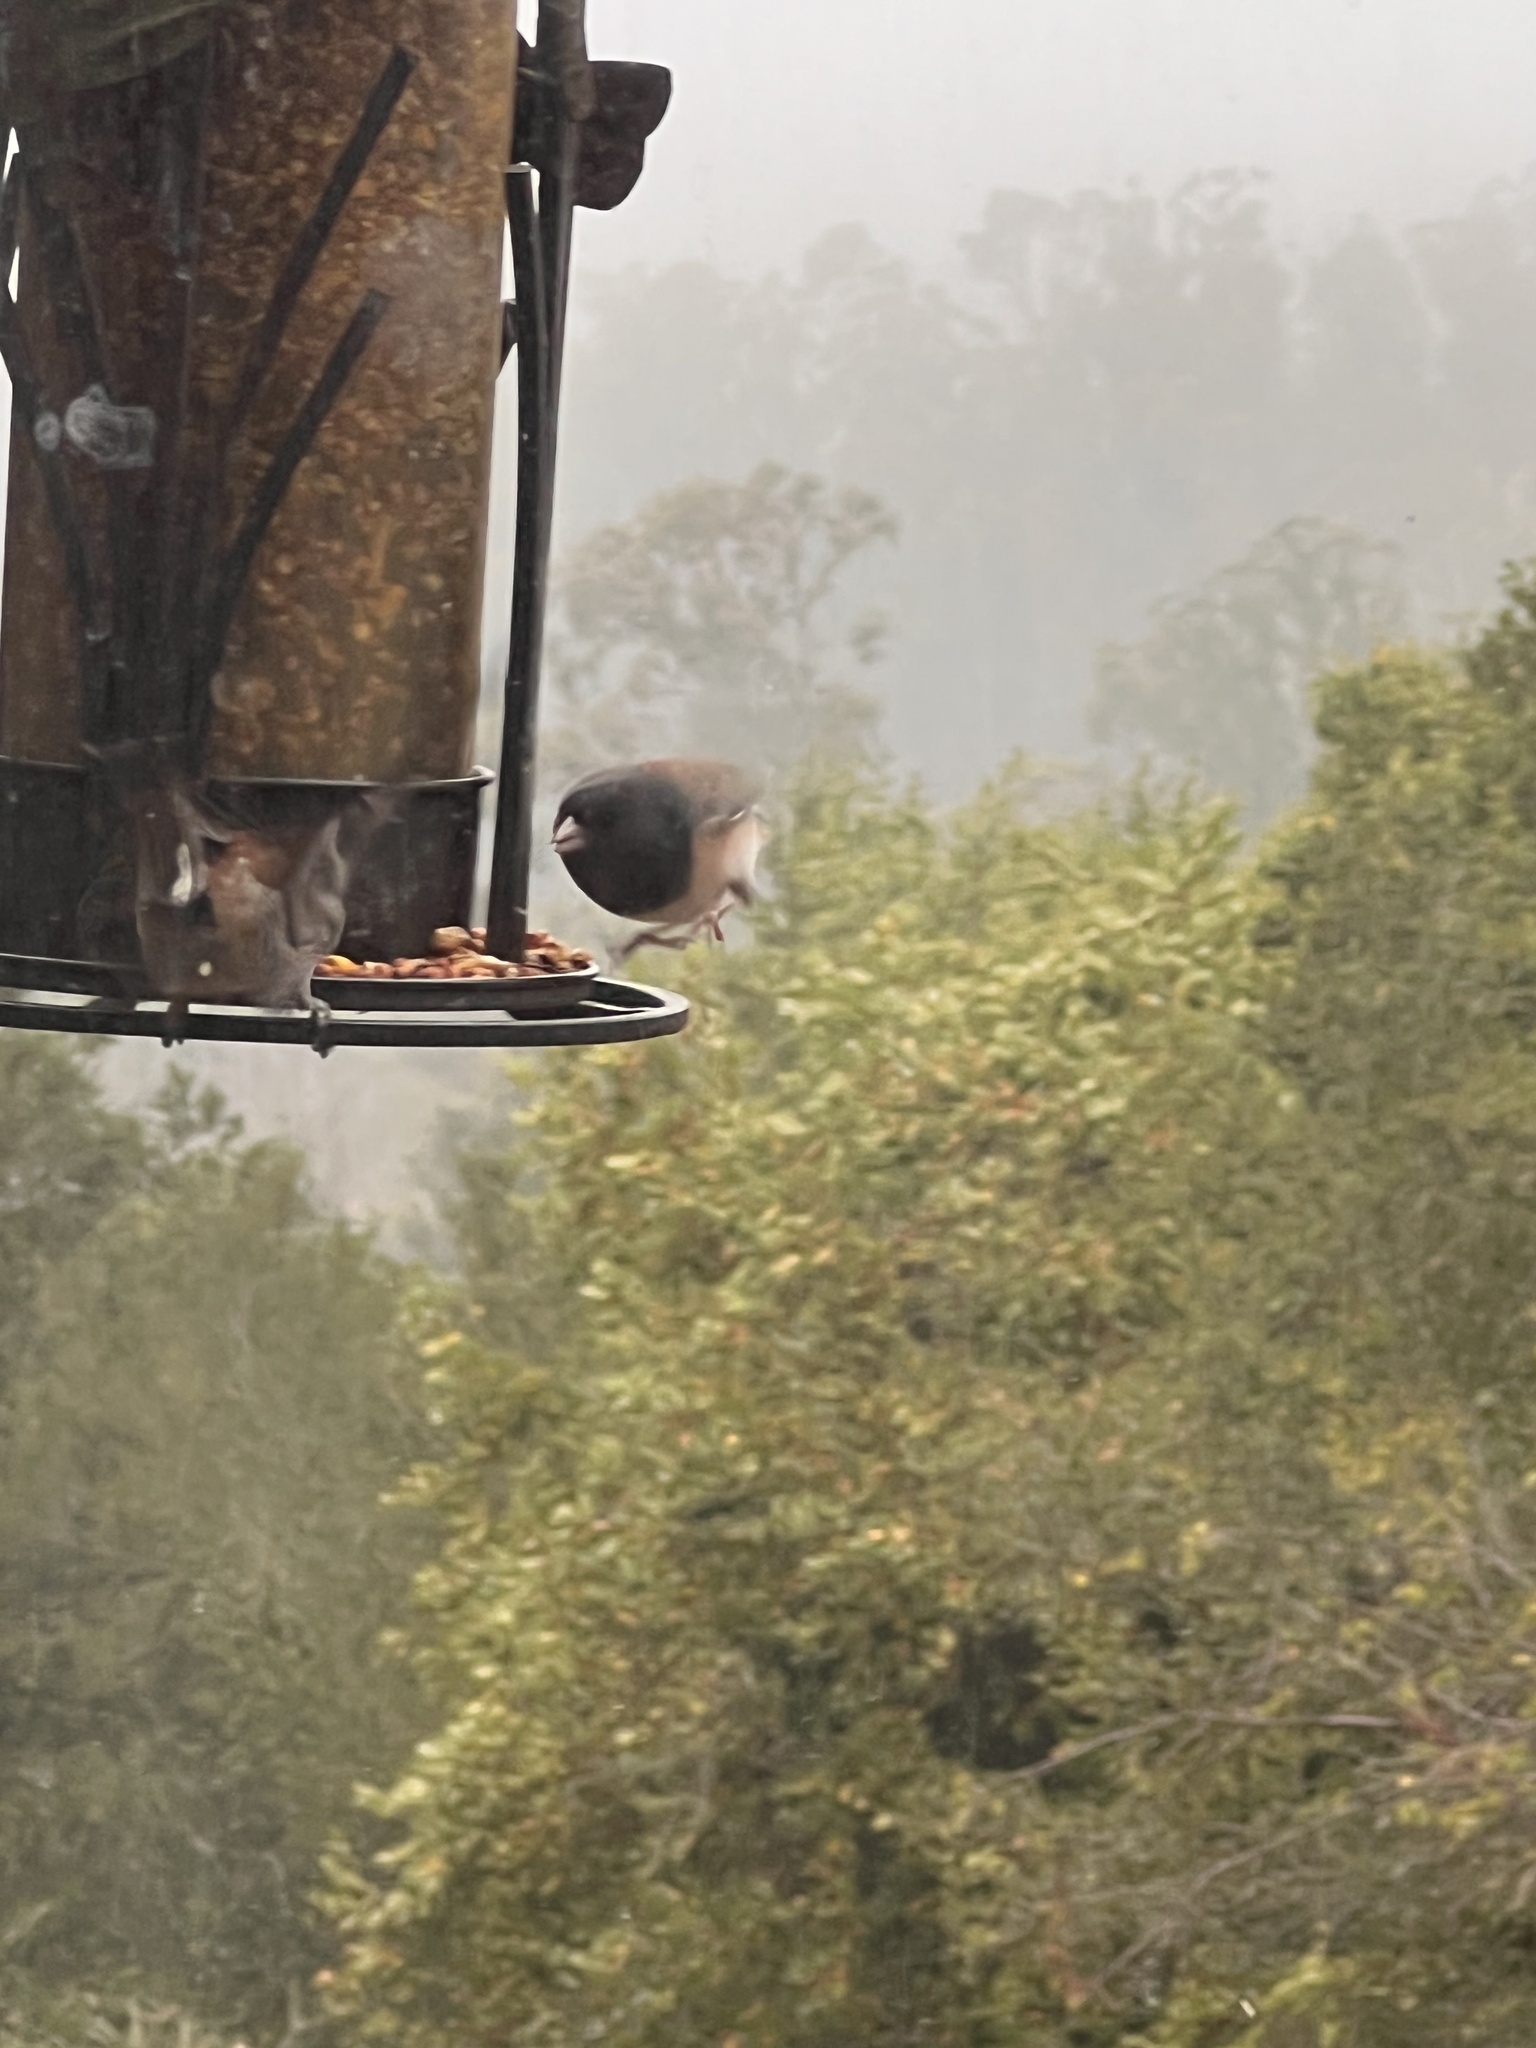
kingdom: Animalia
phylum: Chordata
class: Aves
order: Passeriformes
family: Passerellidae
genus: Junco
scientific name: Junco hyemalis
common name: Dark-eyed junco
